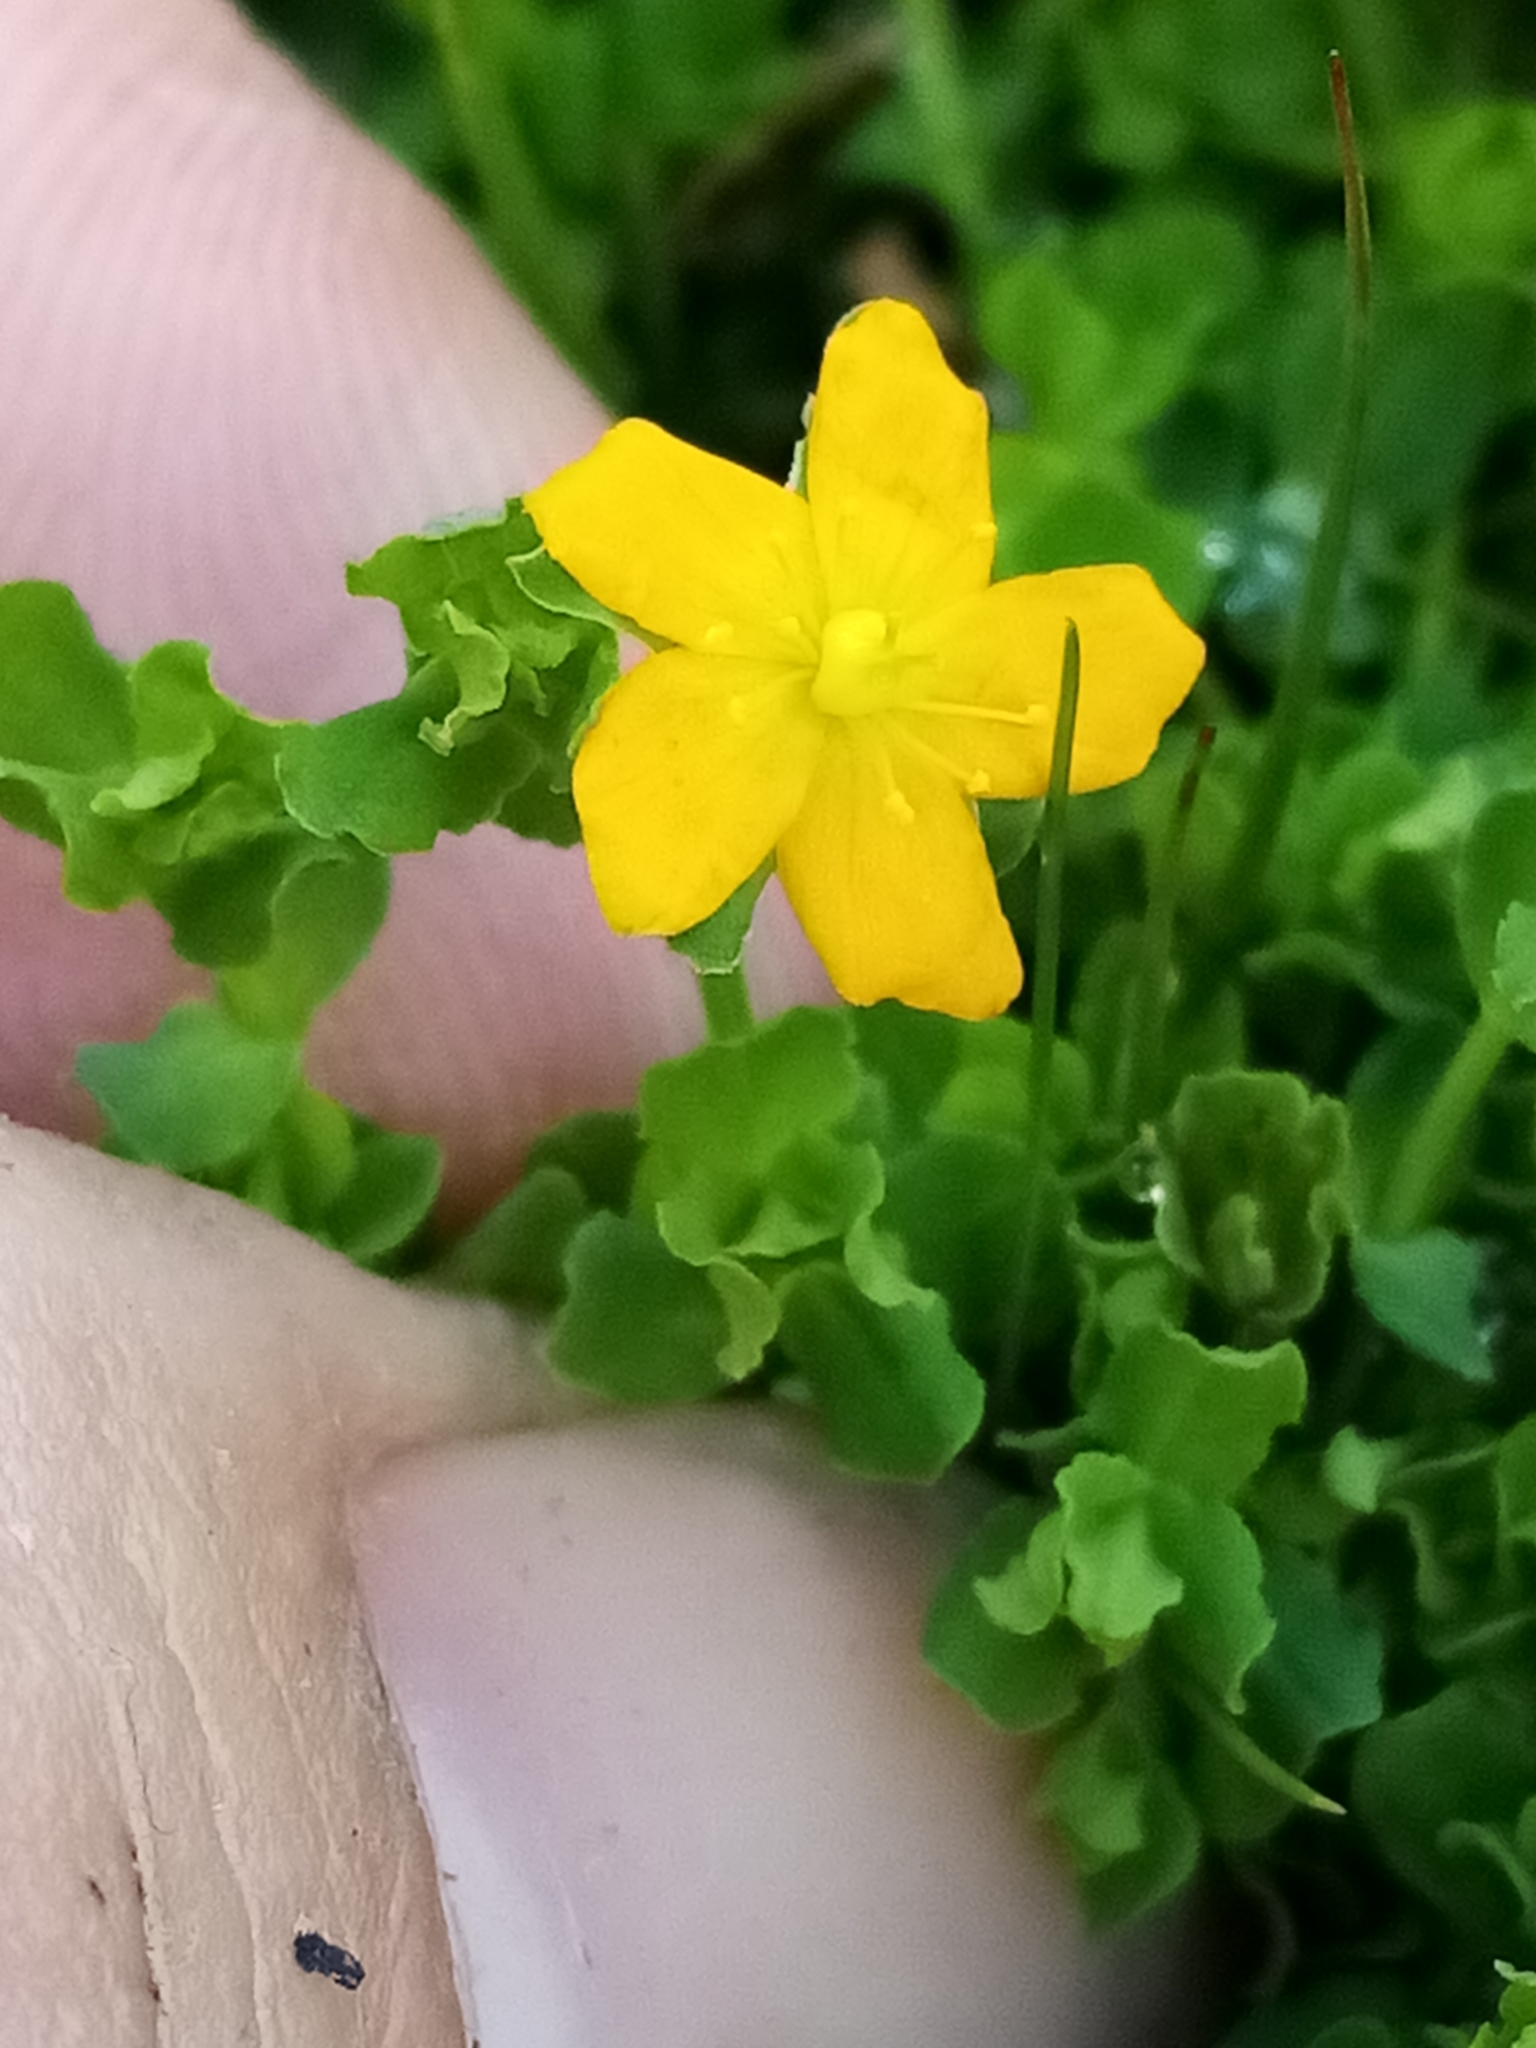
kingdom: Plantae
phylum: Tracheophyta
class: Magnoliopsida
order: Malpighiales
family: Hypericaceae
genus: Hypericum
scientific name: Hypericum japonicum
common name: Matted st. john's-wort
